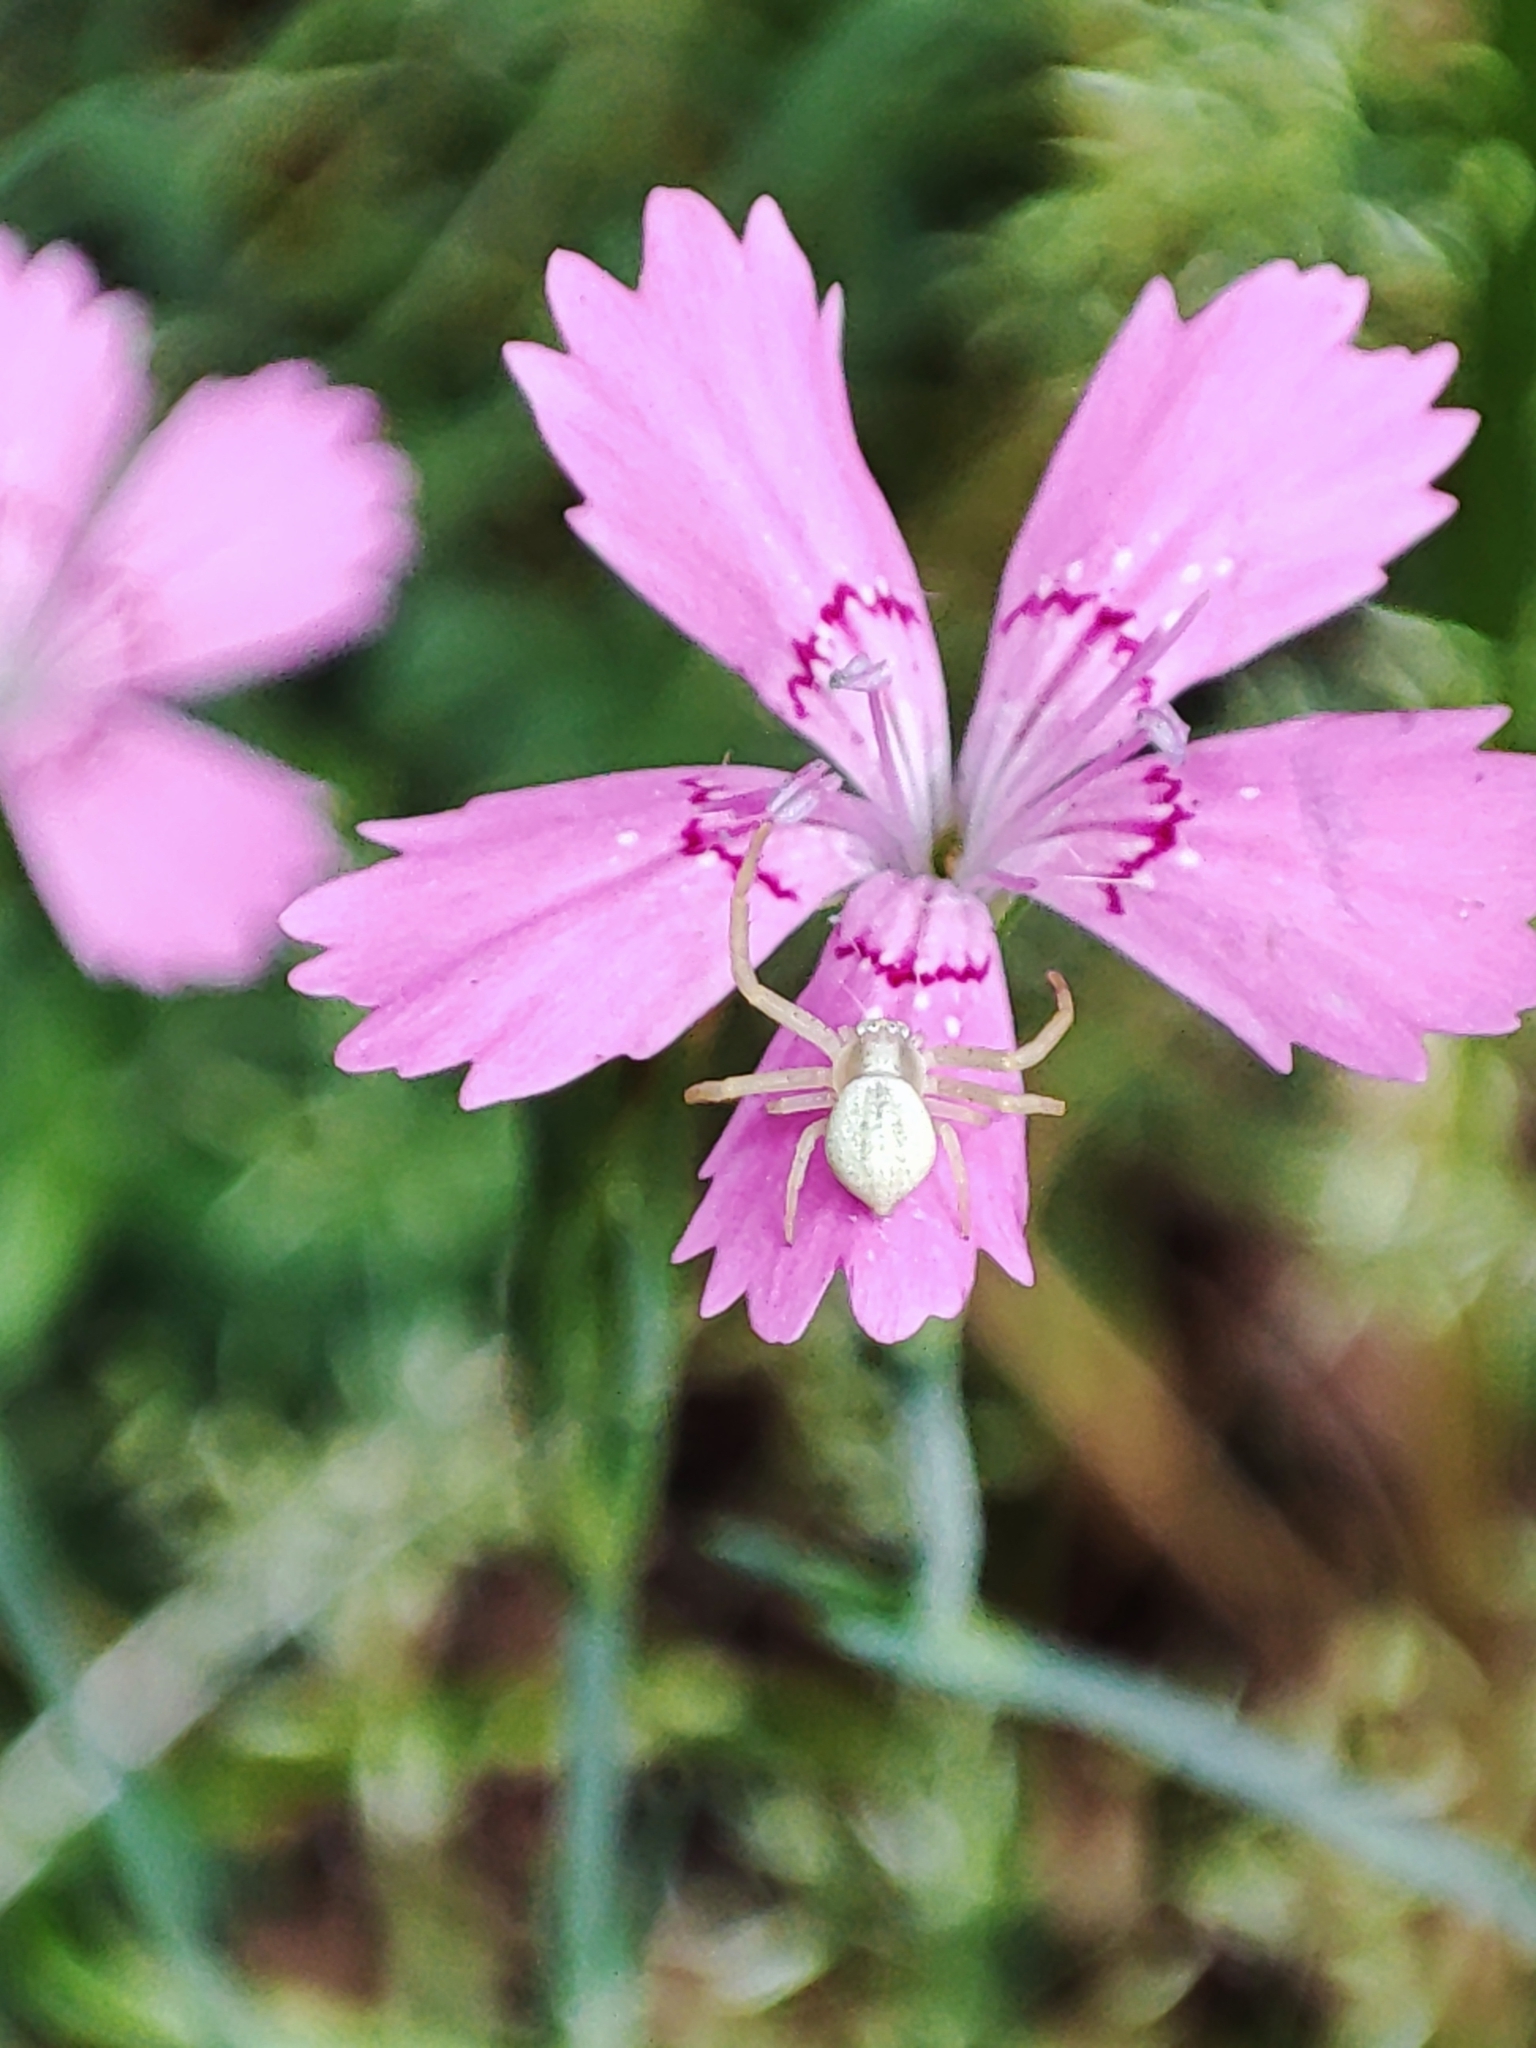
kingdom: Animalia
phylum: Arthropoda
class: Arachnida
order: Araneae
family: Thomisidae
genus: Misumena
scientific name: Misumena vatia
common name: Goldenrod crab spider
